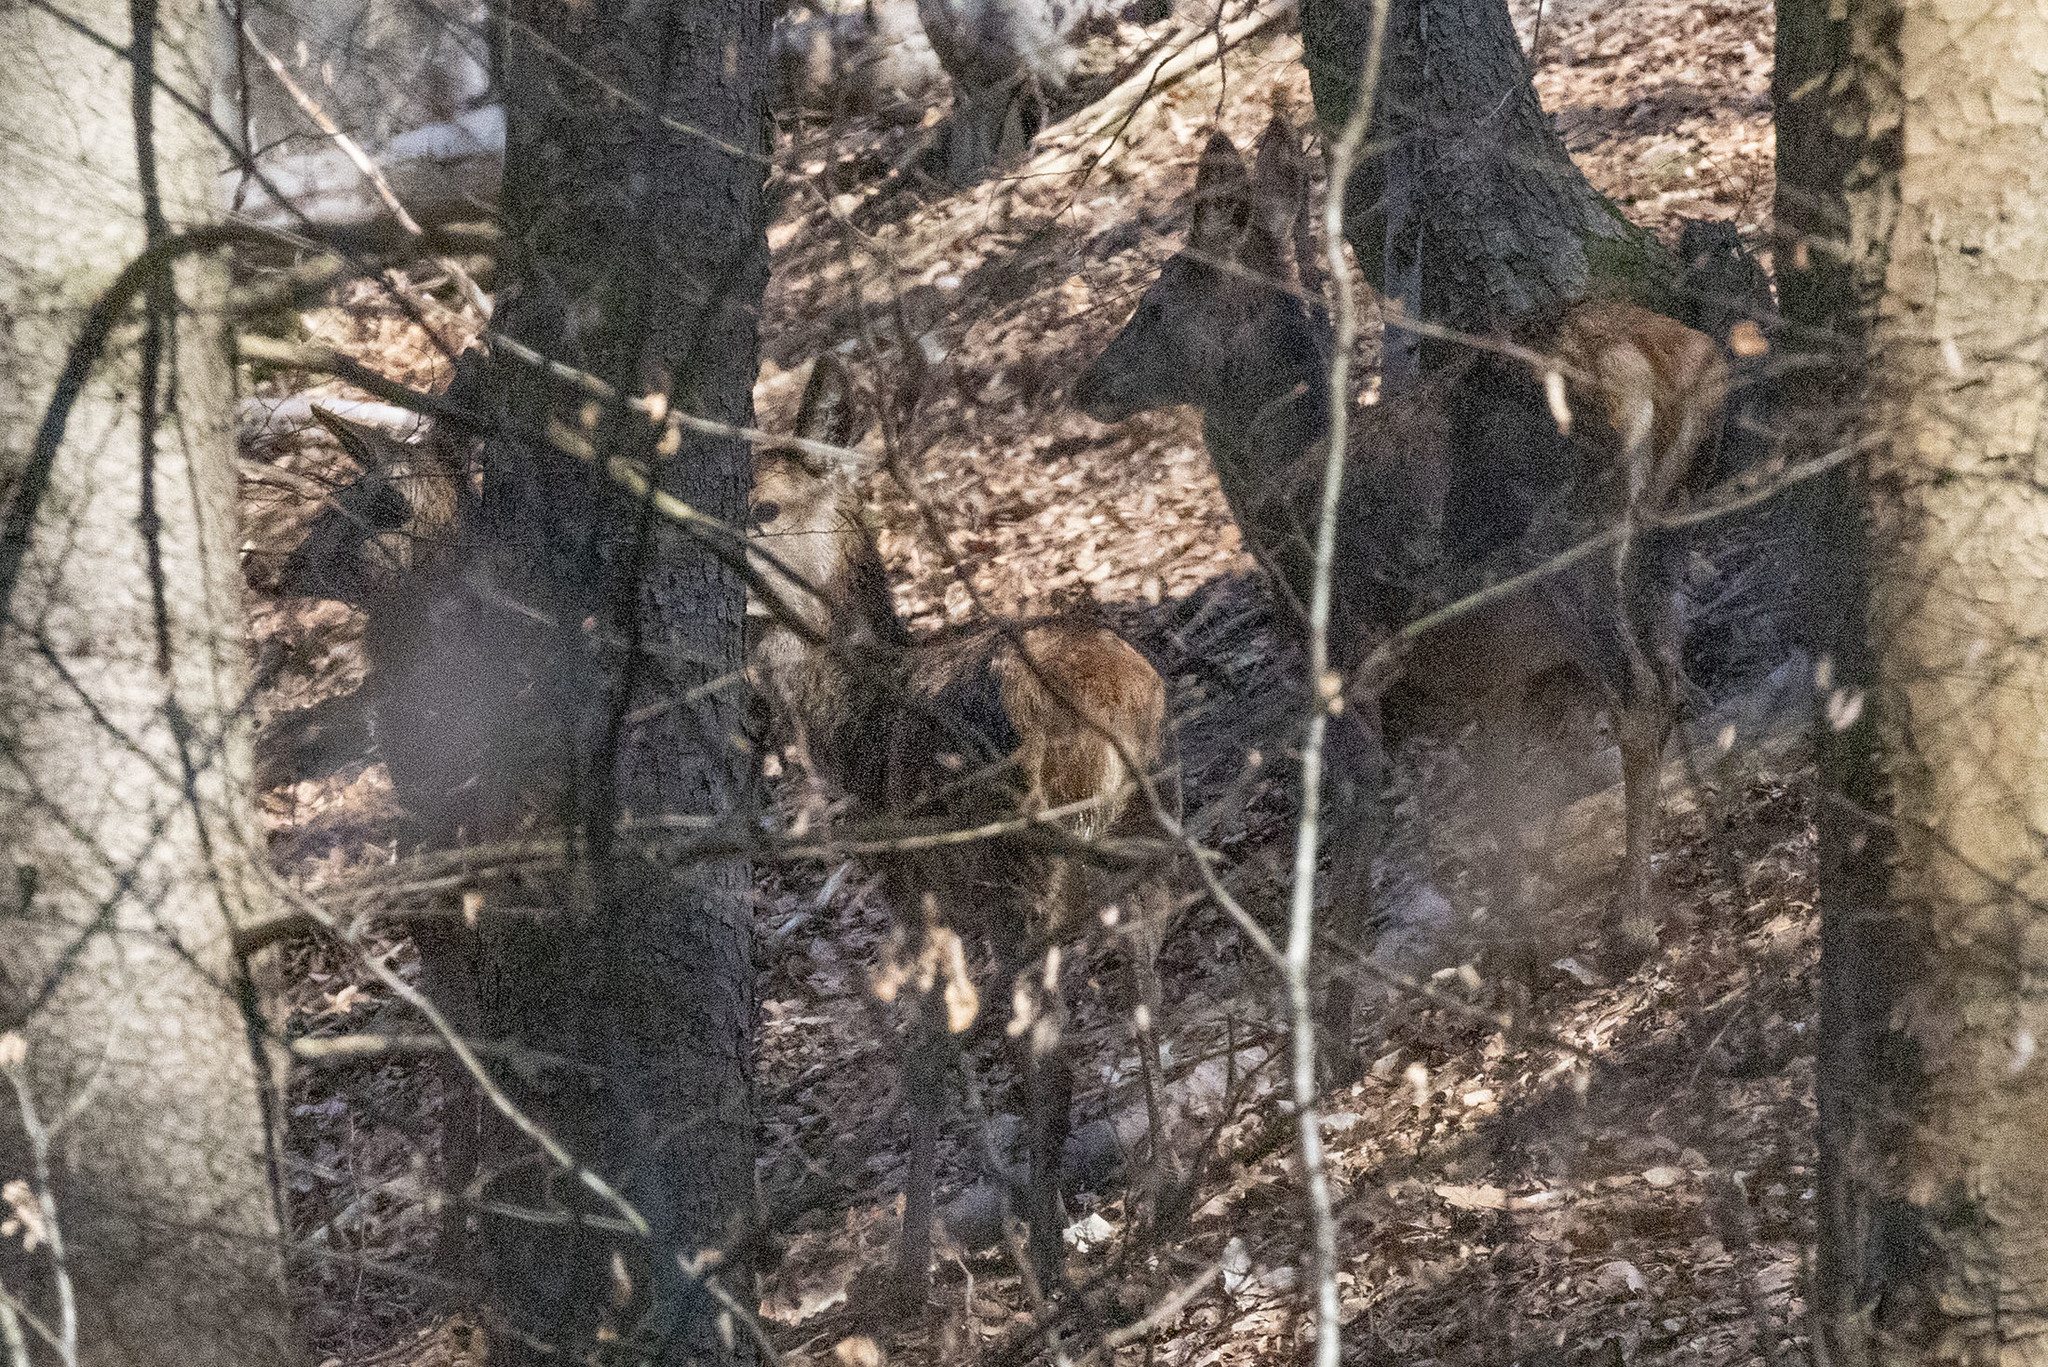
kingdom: Animalia
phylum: Chordata
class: Mammalia
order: Artiodactyla
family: Cervidae
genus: Cervus
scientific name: Cervus elaphus
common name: Red deer
